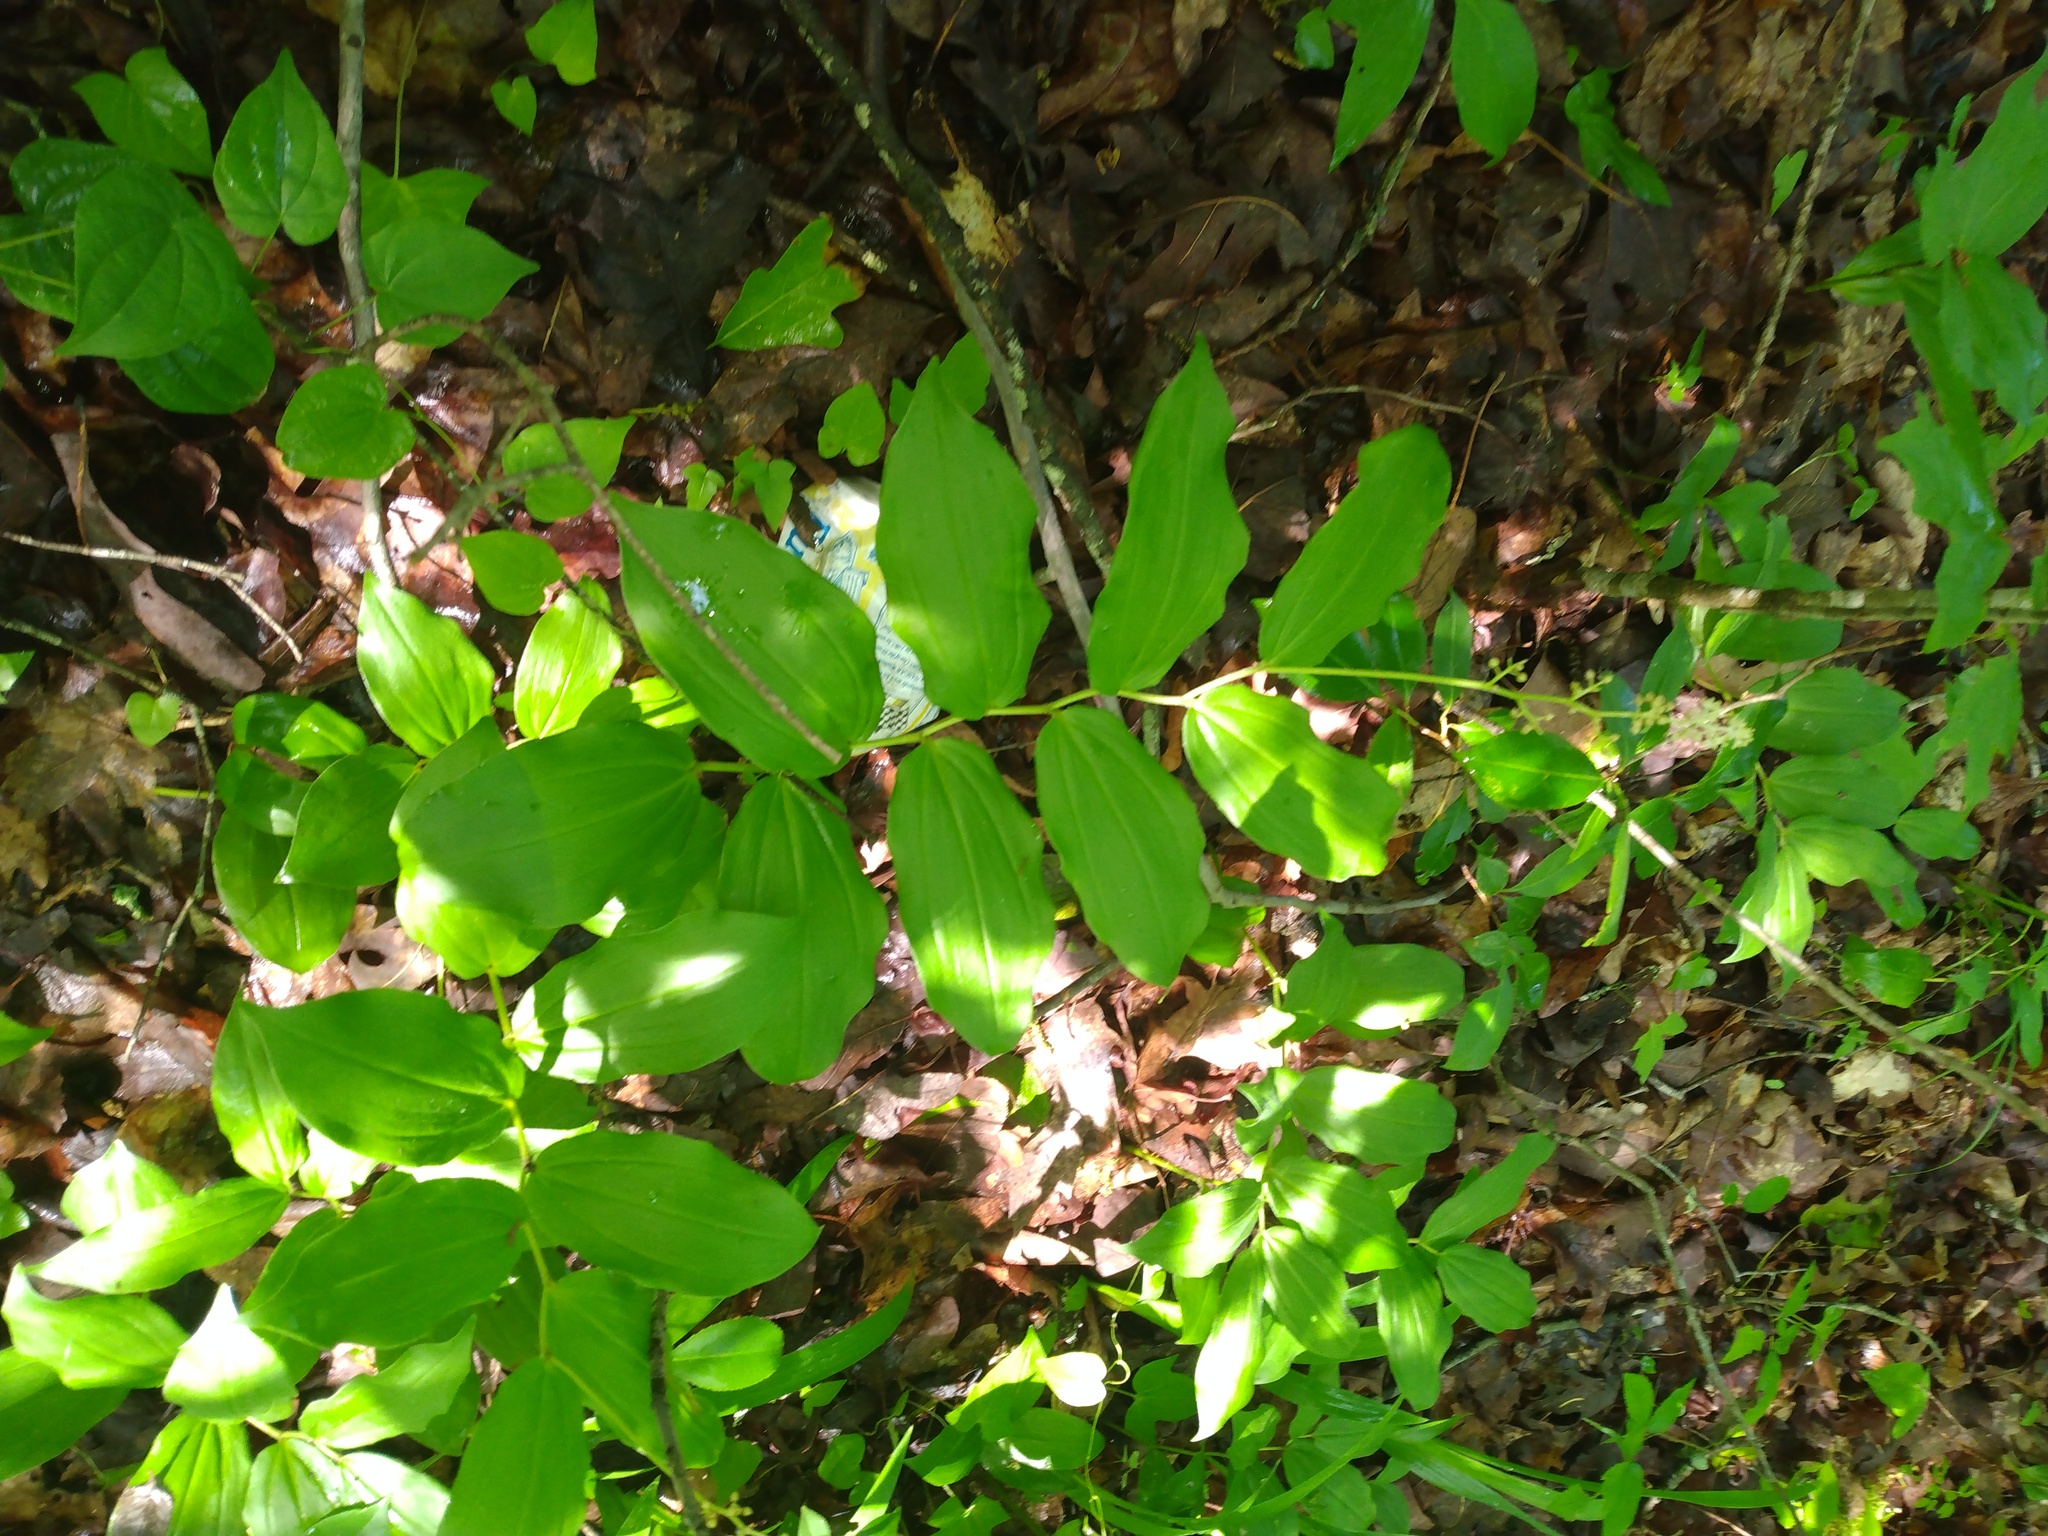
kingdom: Plantae
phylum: Tracheophyta
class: Liliopsida
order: Asparagales
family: Asparagaceae
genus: Maianthemum
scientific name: Maianthemum racemosum
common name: False spikenard
